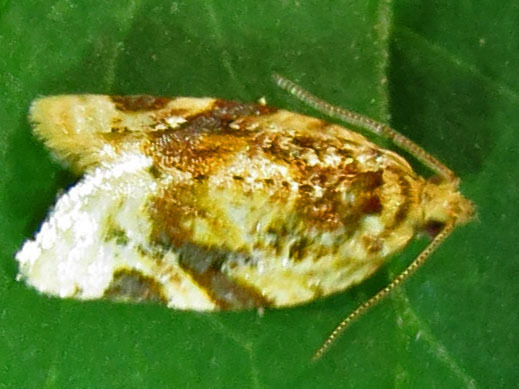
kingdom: Animalia
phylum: Arthropoda
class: Insecta
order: Lepidoptera
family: Tortricidae
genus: Argyrotaenia
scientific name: Argyrotaenia velutinana
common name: Red-banded leafroller moth
